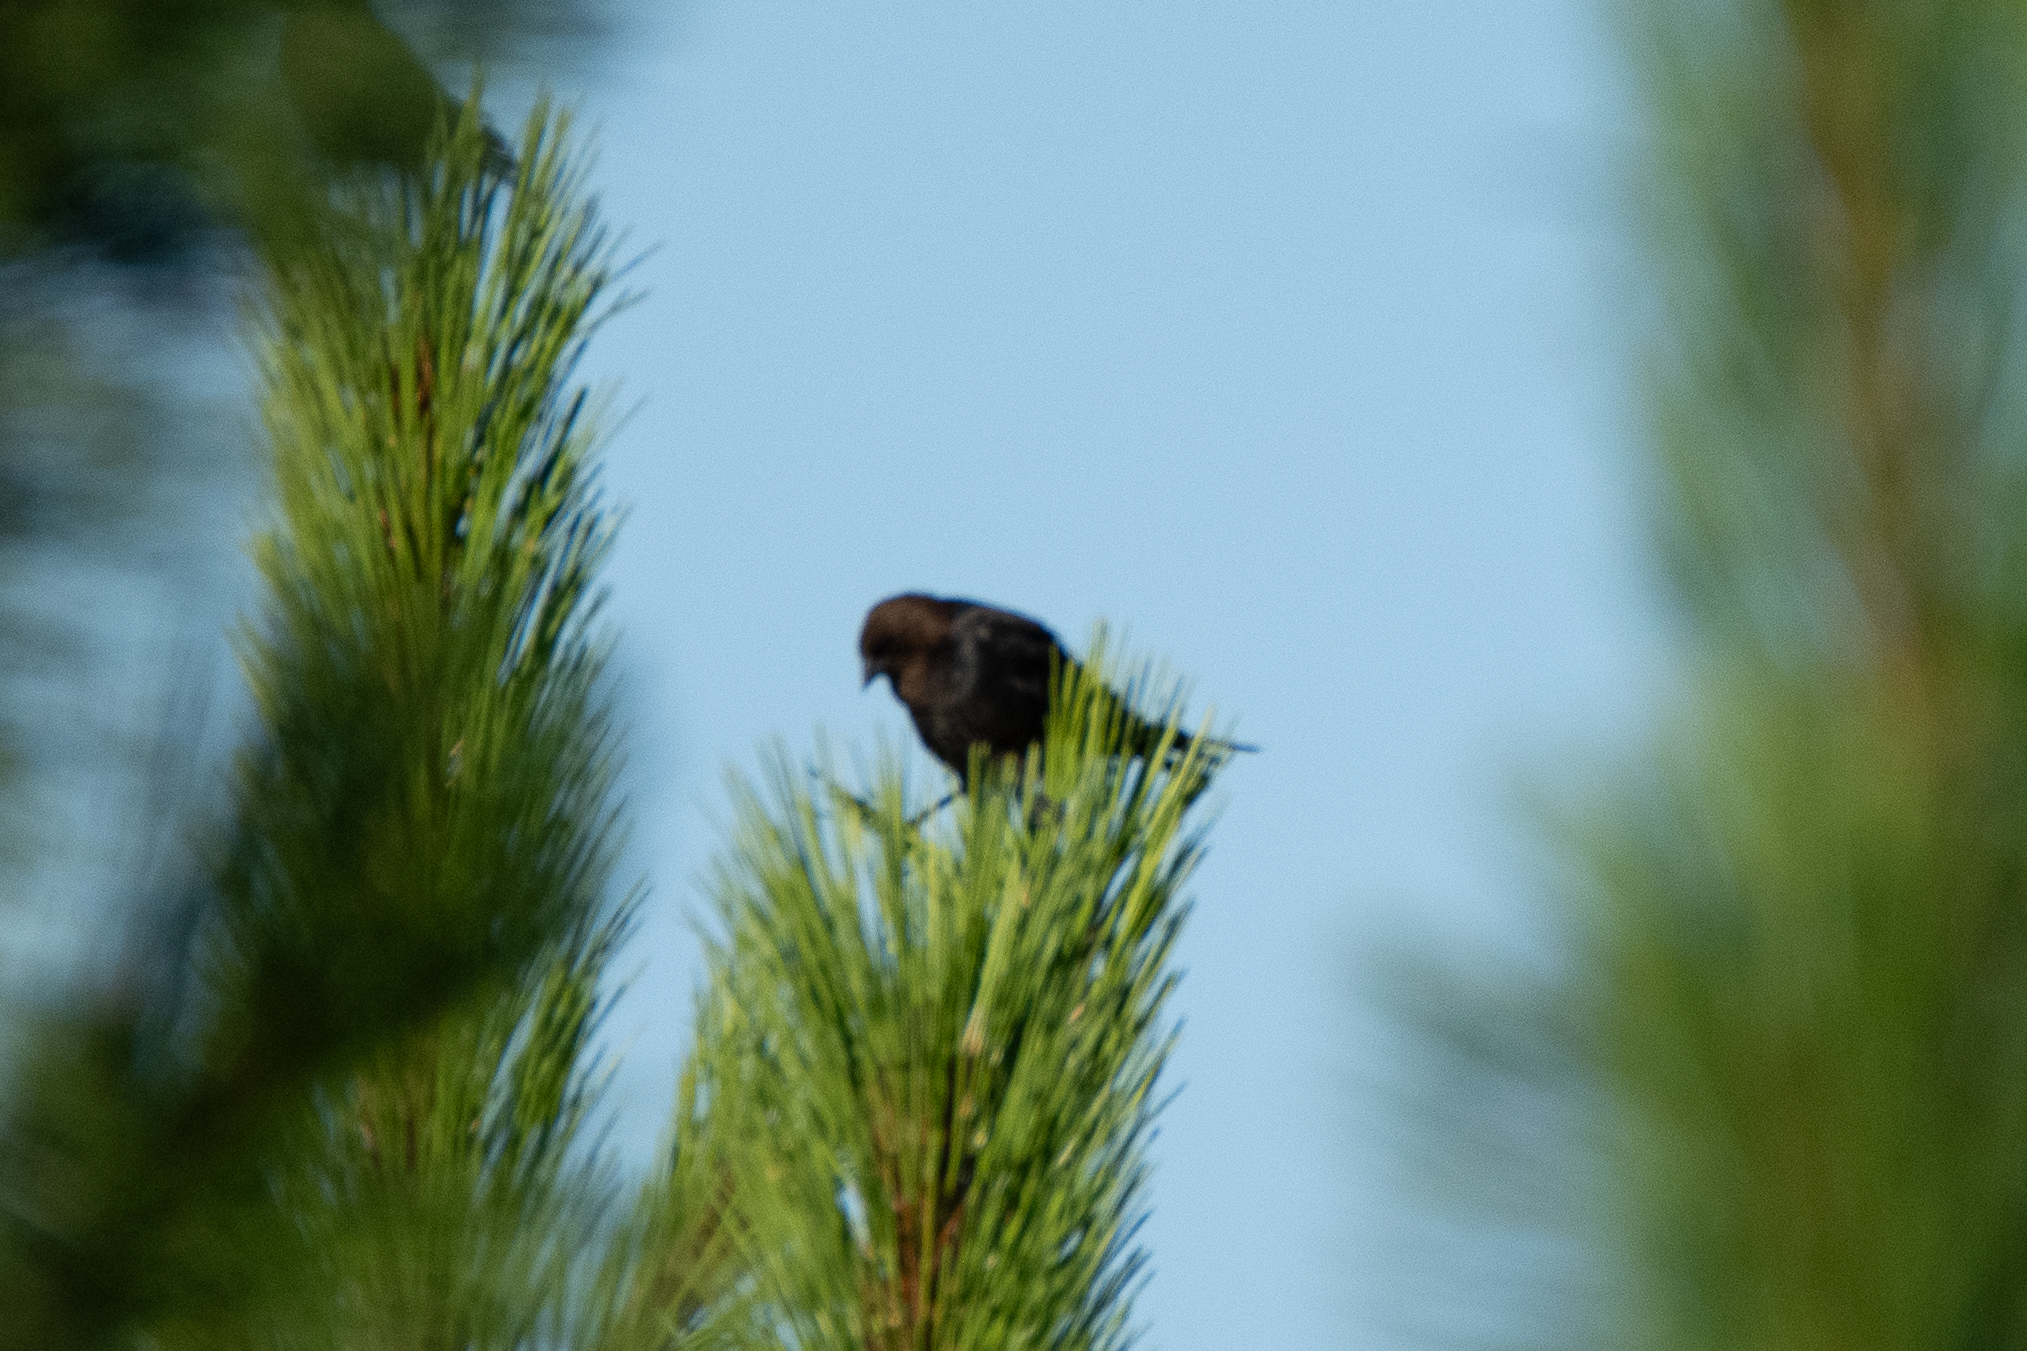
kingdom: Animalia
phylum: Chordata
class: Aves
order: Passeriformes
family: Icteridae
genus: Molothrus
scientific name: Molothrus ater
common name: Brown-headed cowbird
